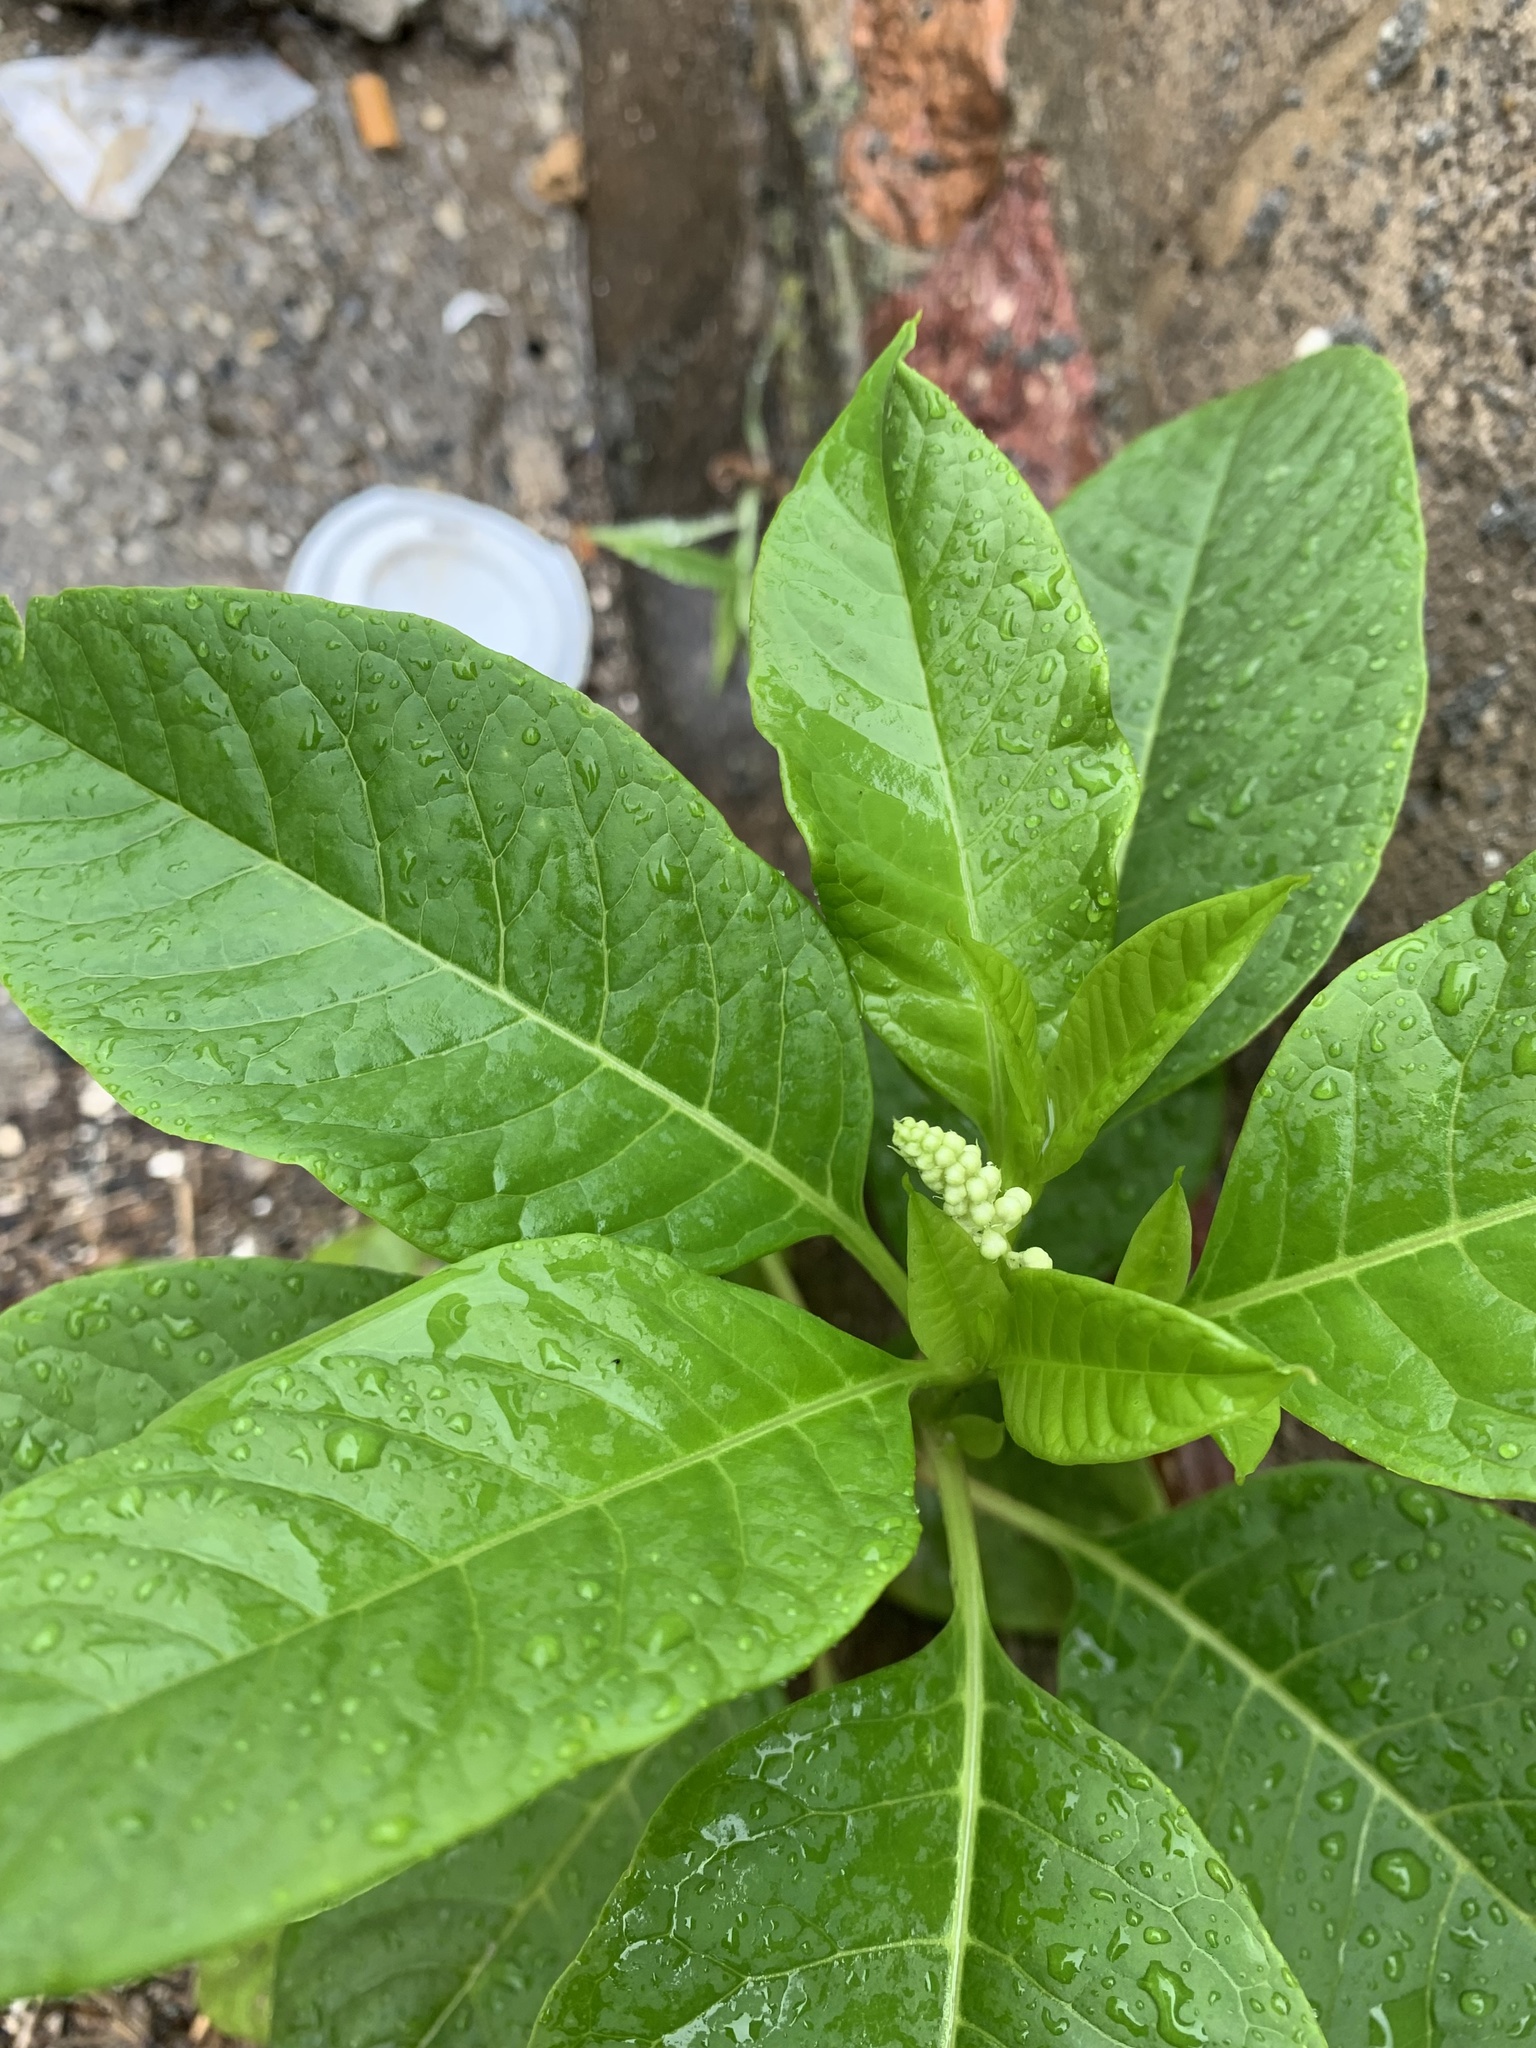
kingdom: Plantae
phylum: Tracheophyta
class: Magnoliopsida
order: Caryophyllales
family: Phytolaccaceae
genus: Phytolacca
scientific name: Phytolacca americana
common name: American pokeweed
